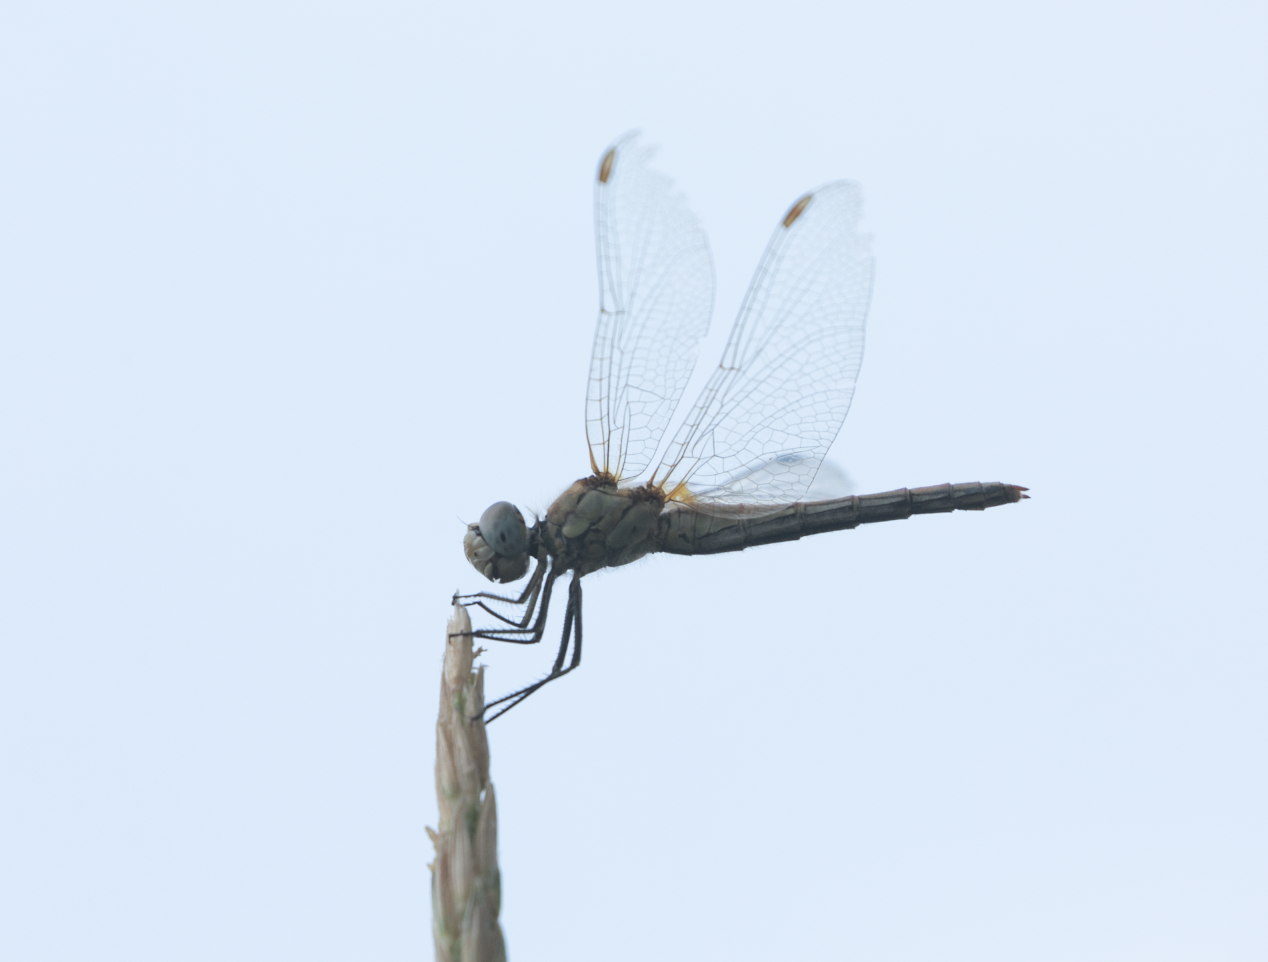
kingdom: Animalia
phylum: Arthropoda
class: Insecta
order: Odonata
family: Libellulidae
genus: Sympetrum
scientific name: Sympetrum fonscolombii
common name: Red-veined darter
